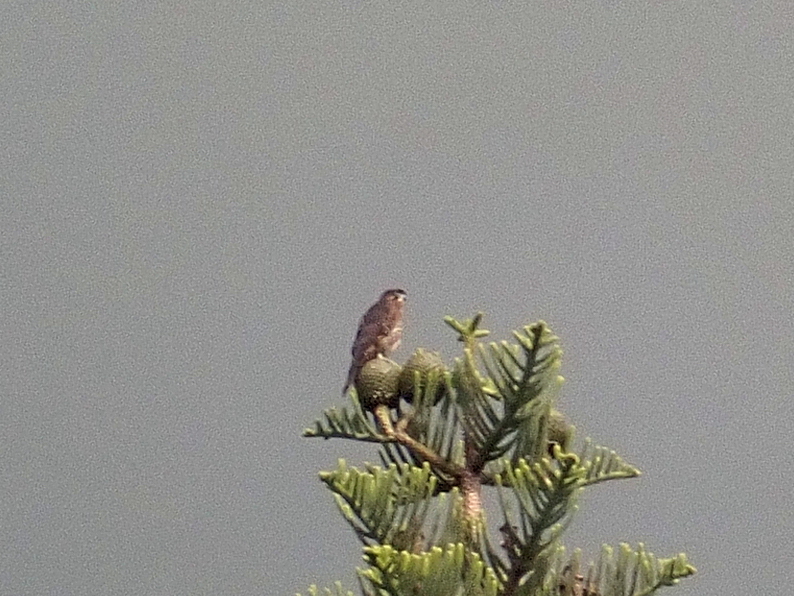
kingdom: Animalia
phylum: Chordata
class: Aves
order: Falconiformes
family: Falconidae
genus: Falco
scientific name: Falco novaeseelandiae
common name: New zealand falcon
